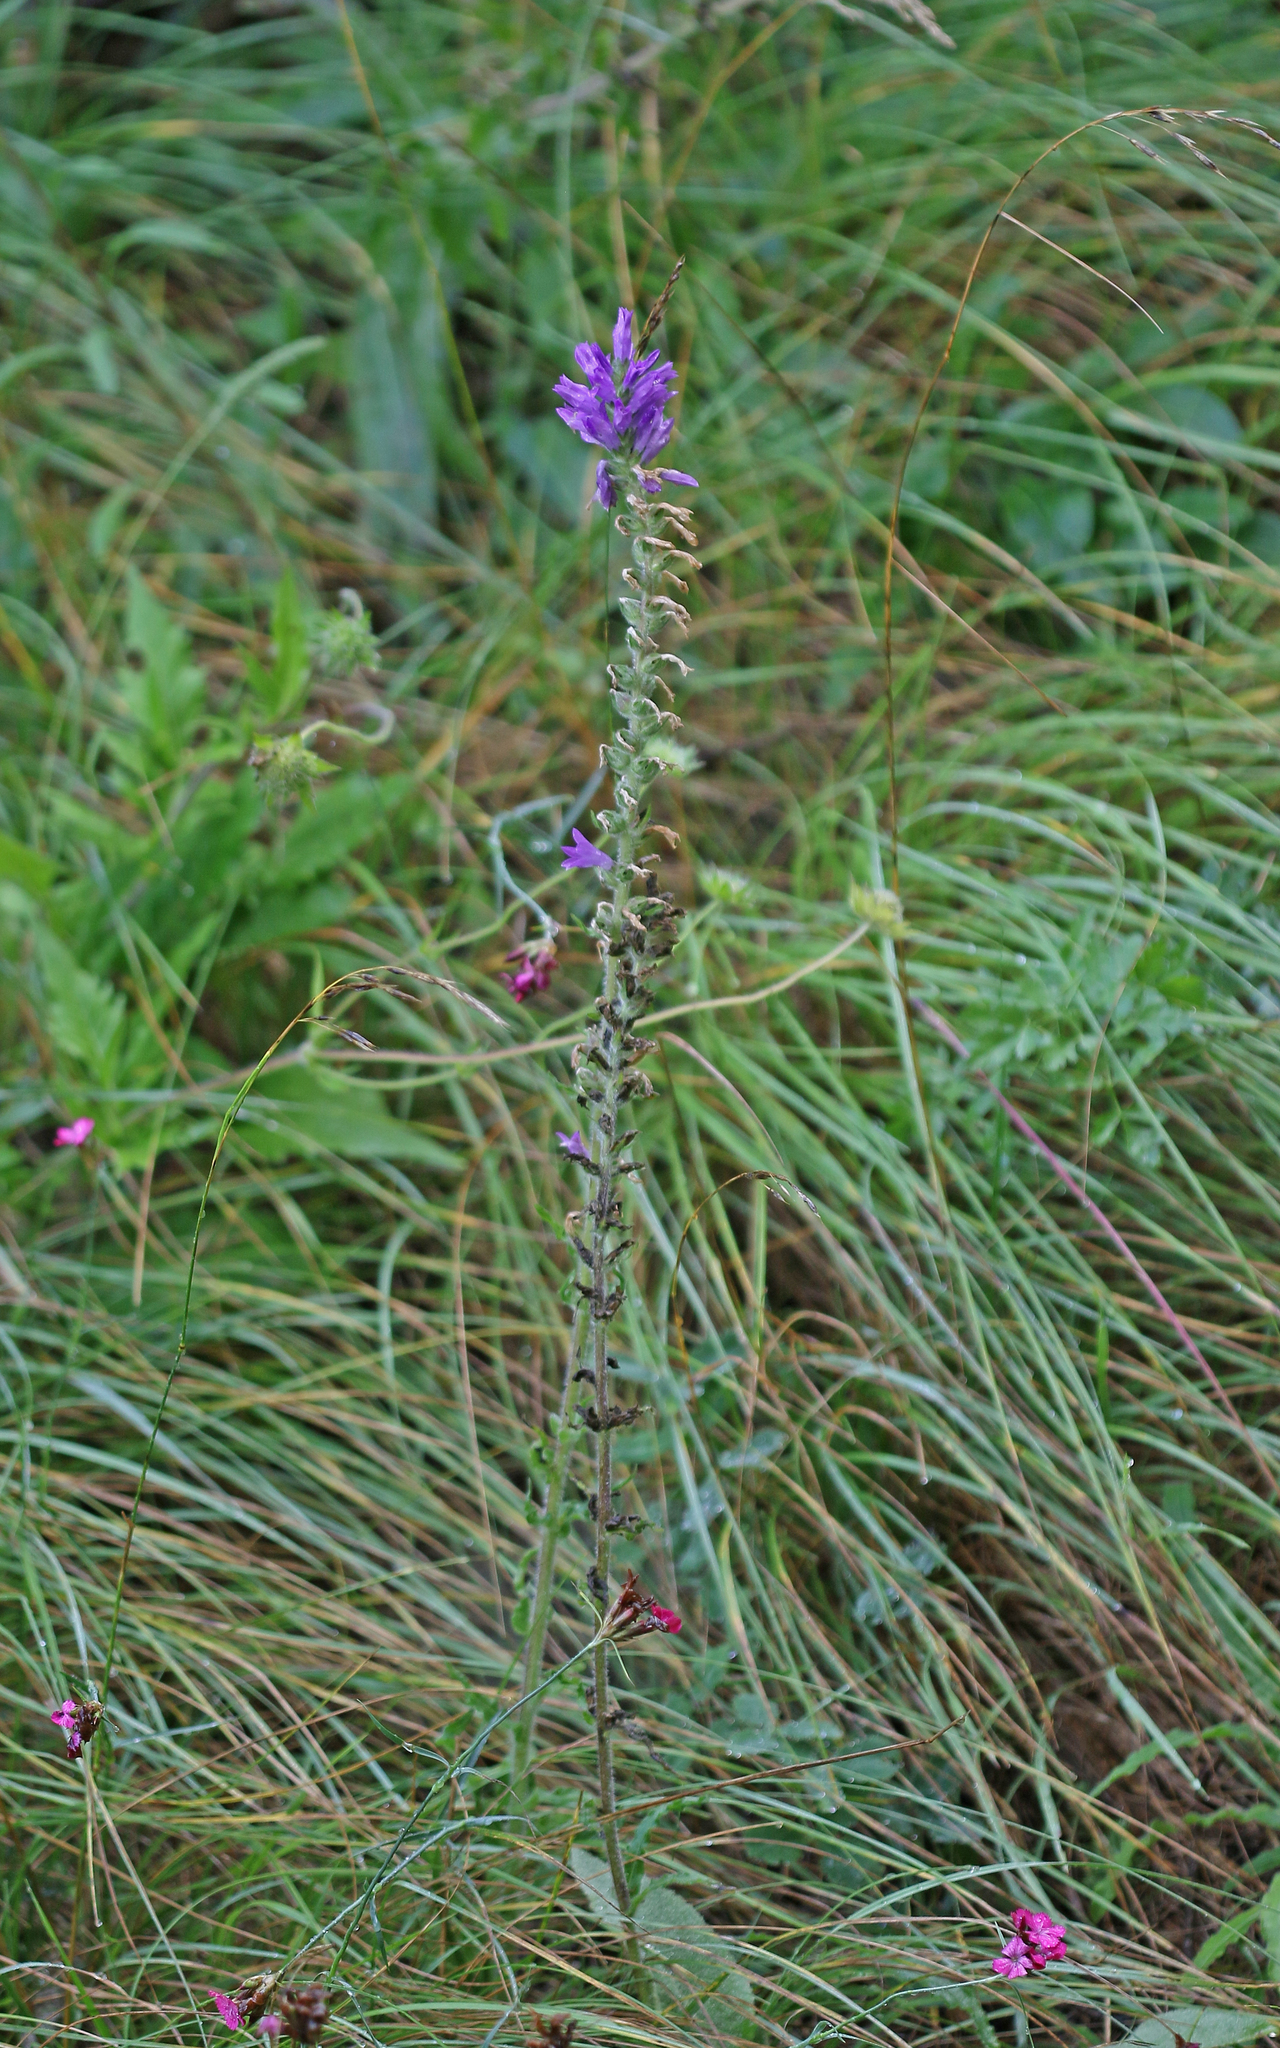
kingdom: Plantae
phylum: Tracheophyta
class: Magnoliopsida
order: Asterales
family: Campanulaceae
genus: Campanula
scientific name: Campanula spicata
